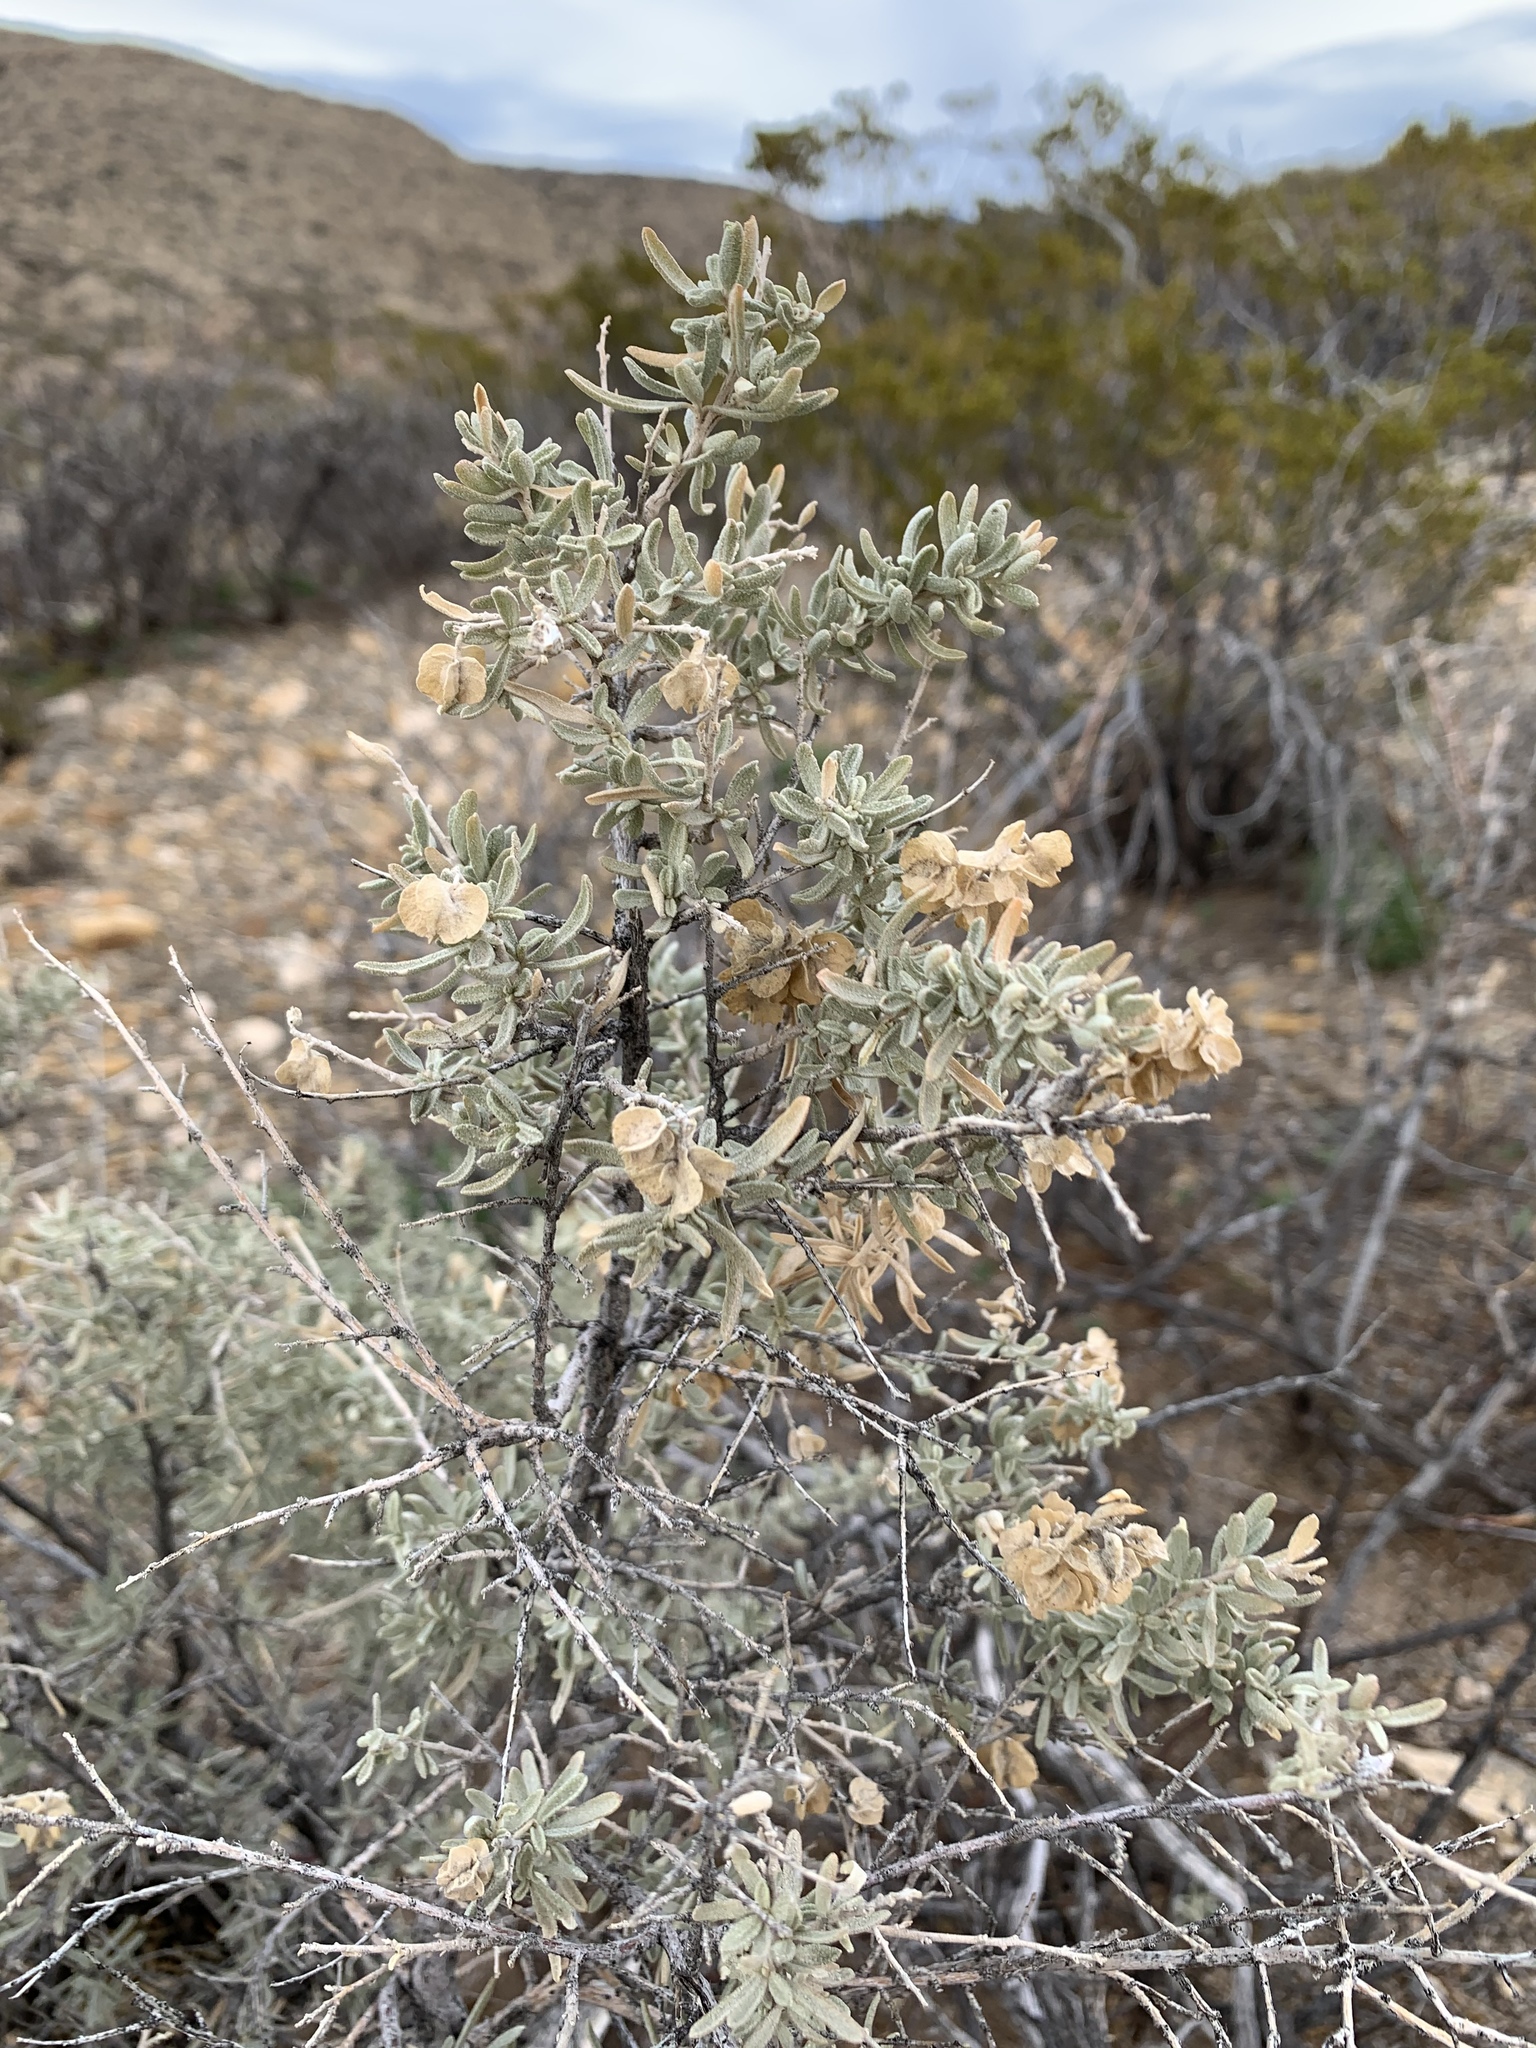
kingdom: Plantae
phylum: Tracheophyta
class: Magnoliopsida
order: Caryophyllales
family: Amaranthaceae
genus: Atriplex
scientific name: Atriplex canescens
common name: Four-wing saltbush
